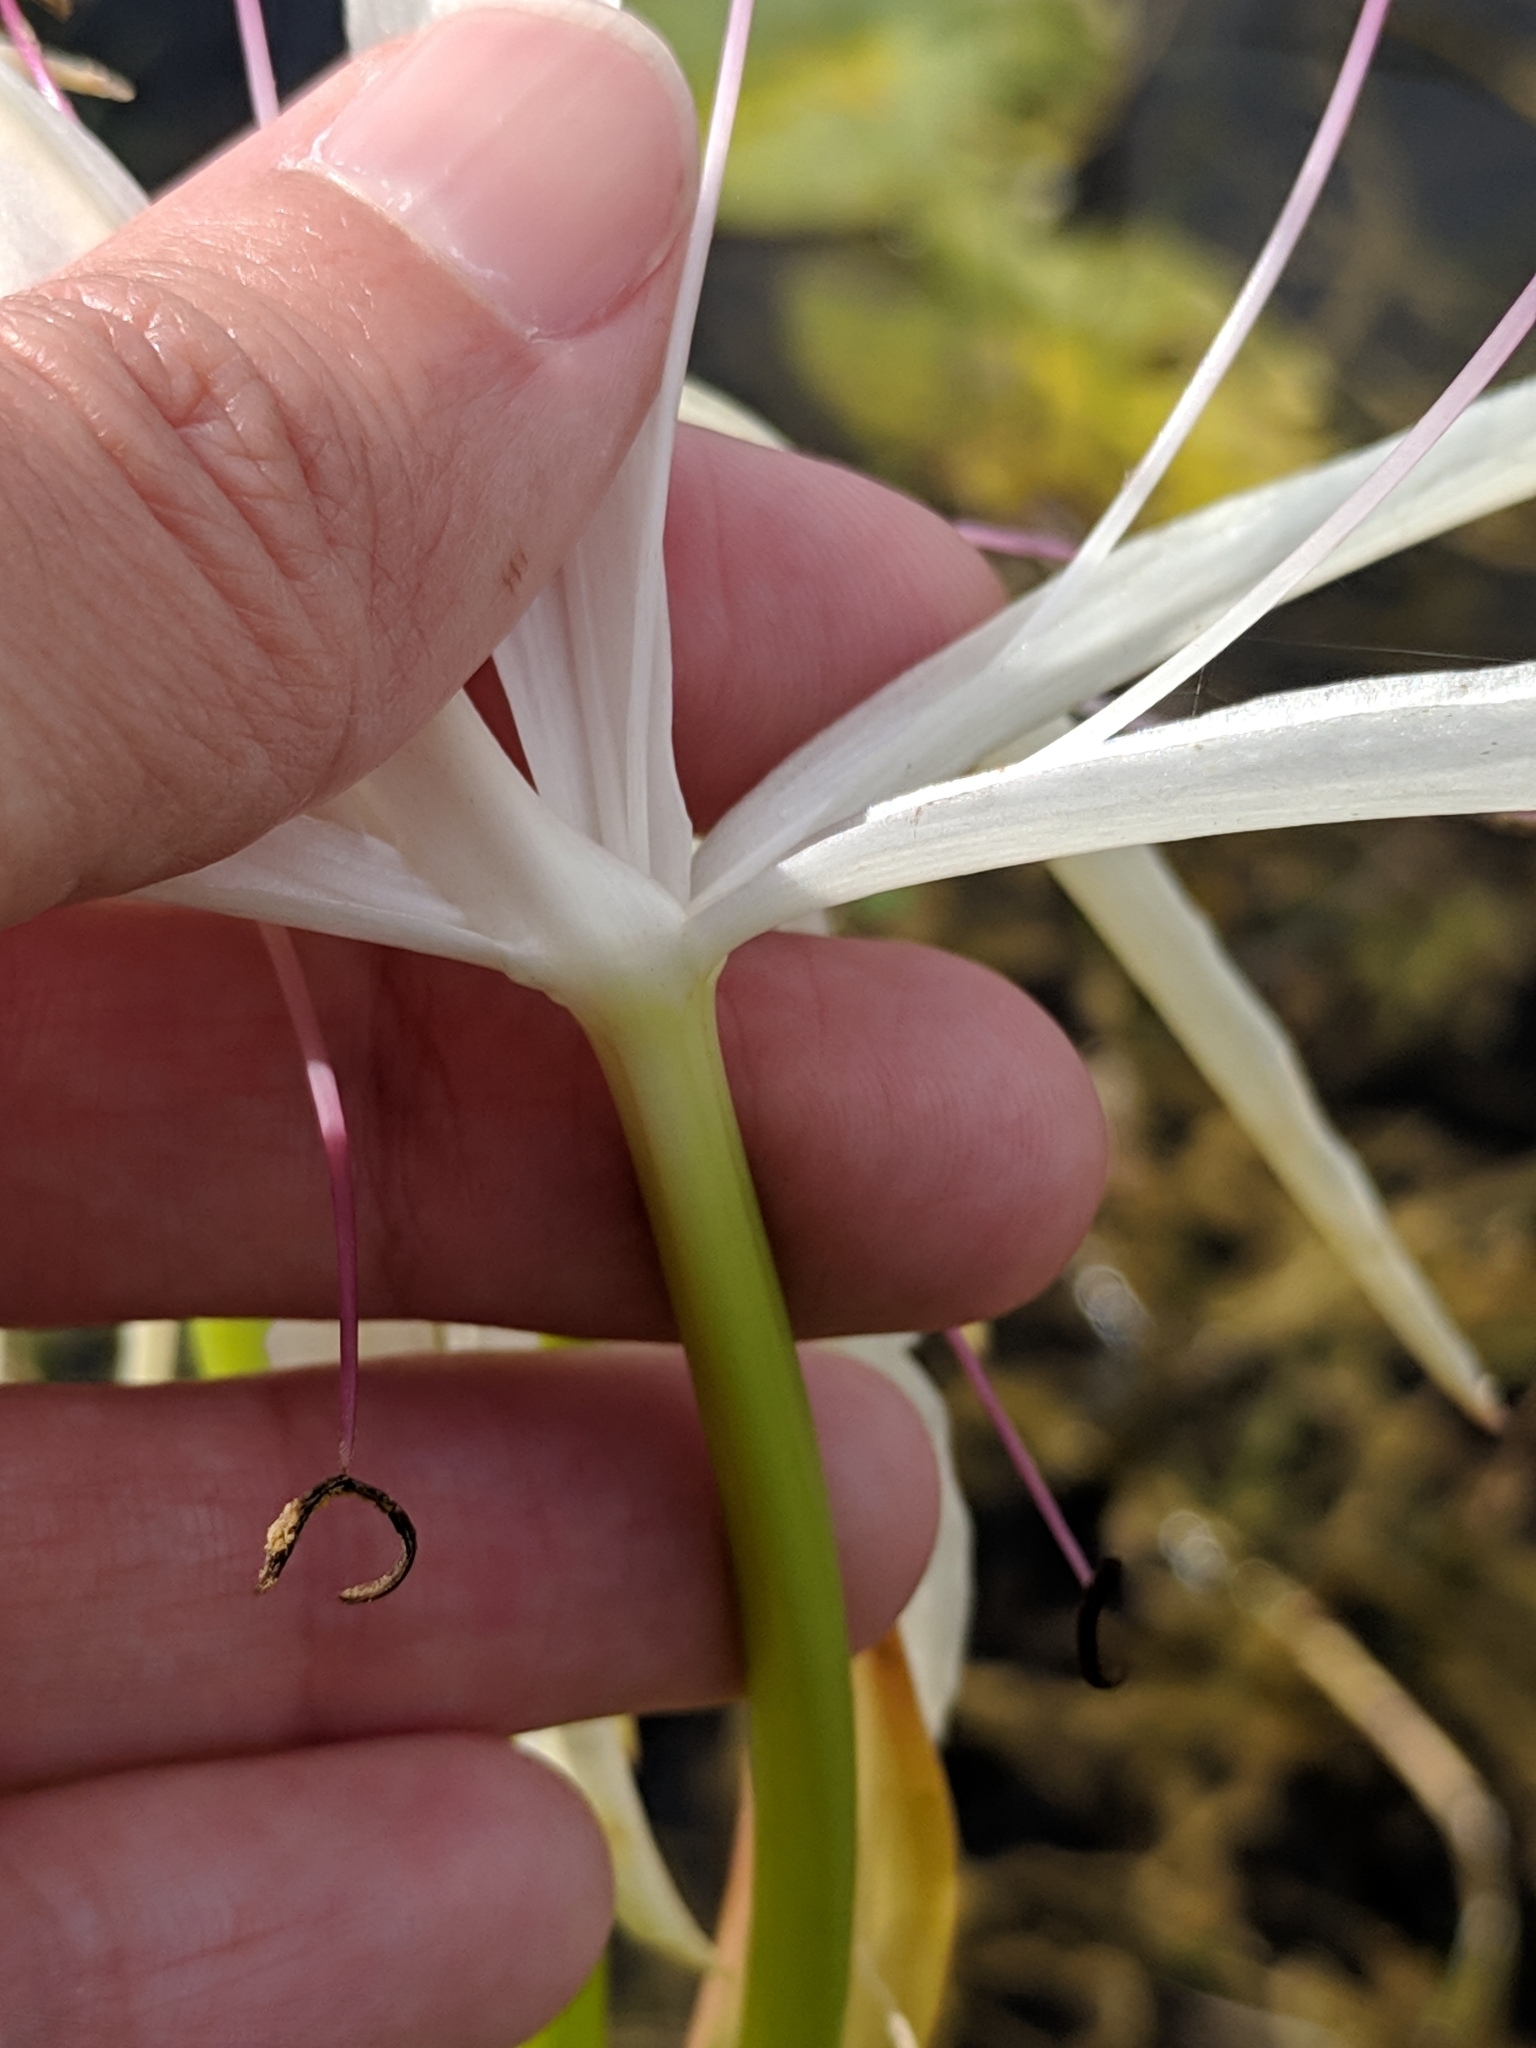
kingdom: Plantae
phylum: Tracheophyta
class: Liliopsida
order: Asparagales
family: Amaryllidaceae
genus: Crinum
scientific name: Crinum americanum
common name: Florida swamp-lily
